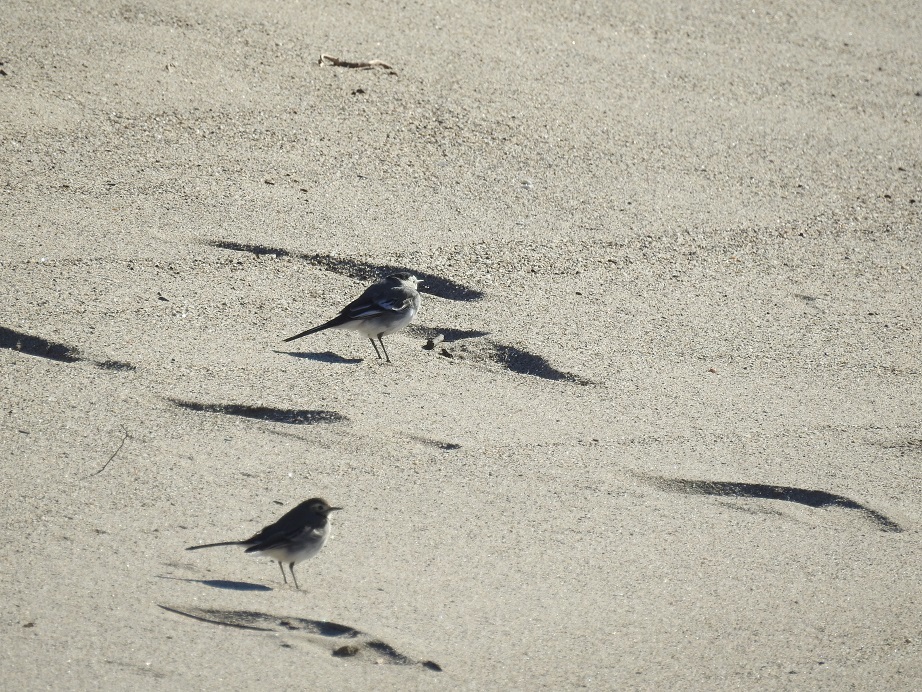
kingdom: Animalia
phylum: Chordata
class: Aves
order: Passeriformes
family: Motacillidae
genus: Motacilla
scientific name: Motacilla alba
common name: White wagtail
